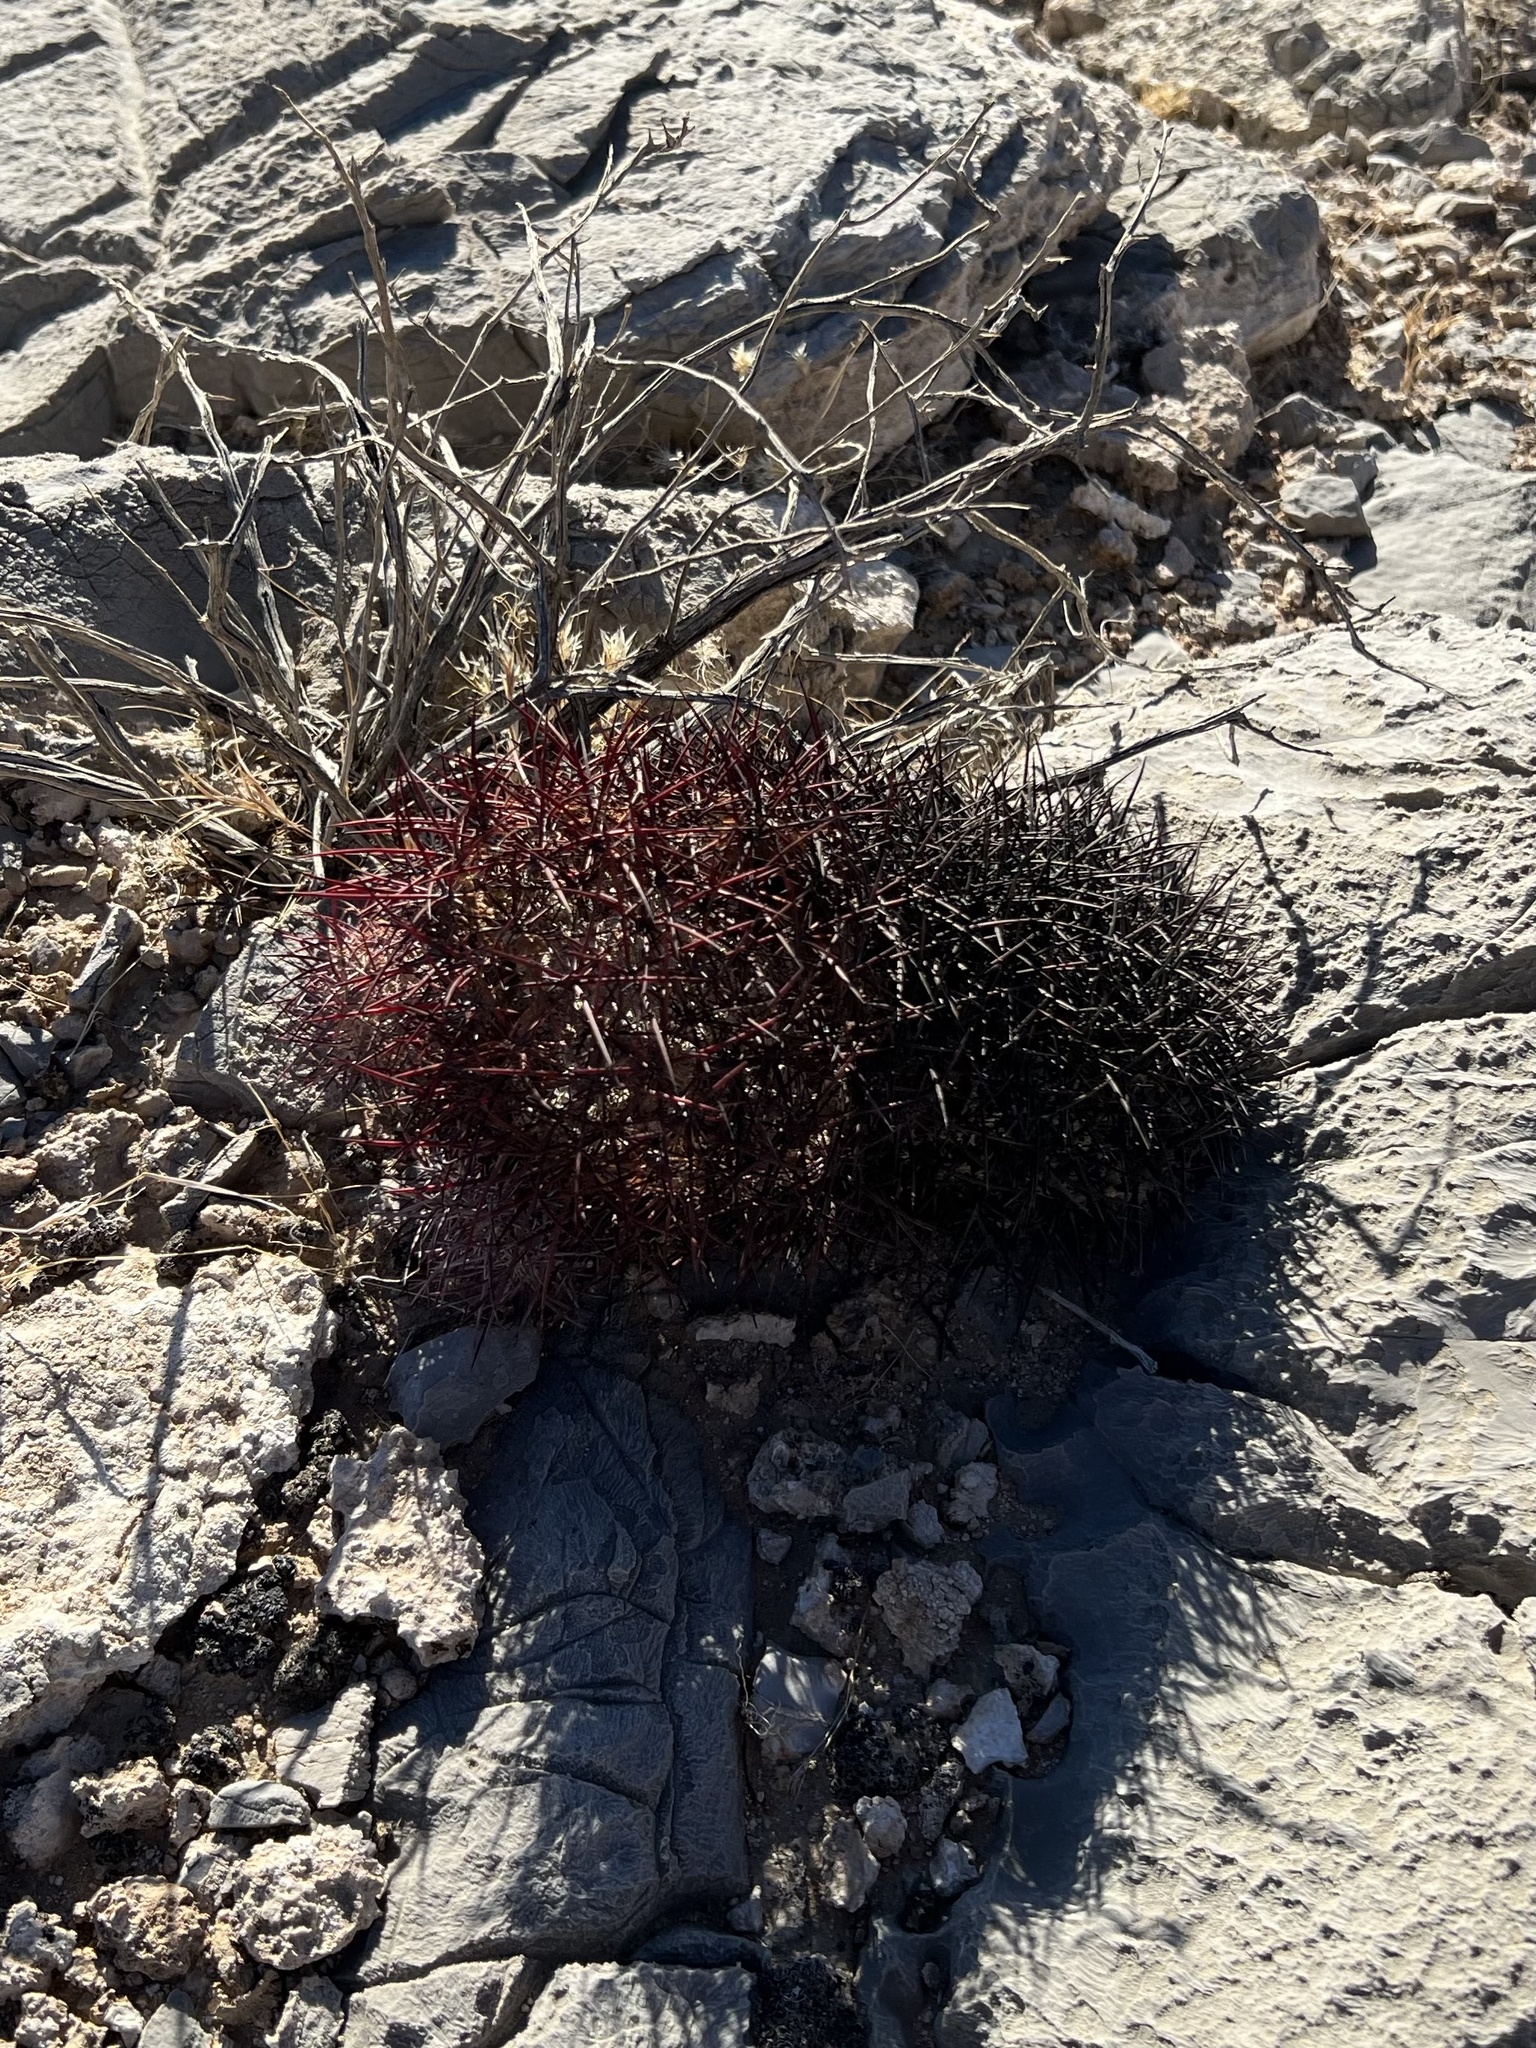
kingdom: Plantae
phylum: Tracheophyta
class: Magnoliopsida
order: Caryophyllales
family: Cactaceae
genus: Sclerocactus
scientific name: Sclerocactus johnsonii
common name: Eight-spine fishhook cactus
